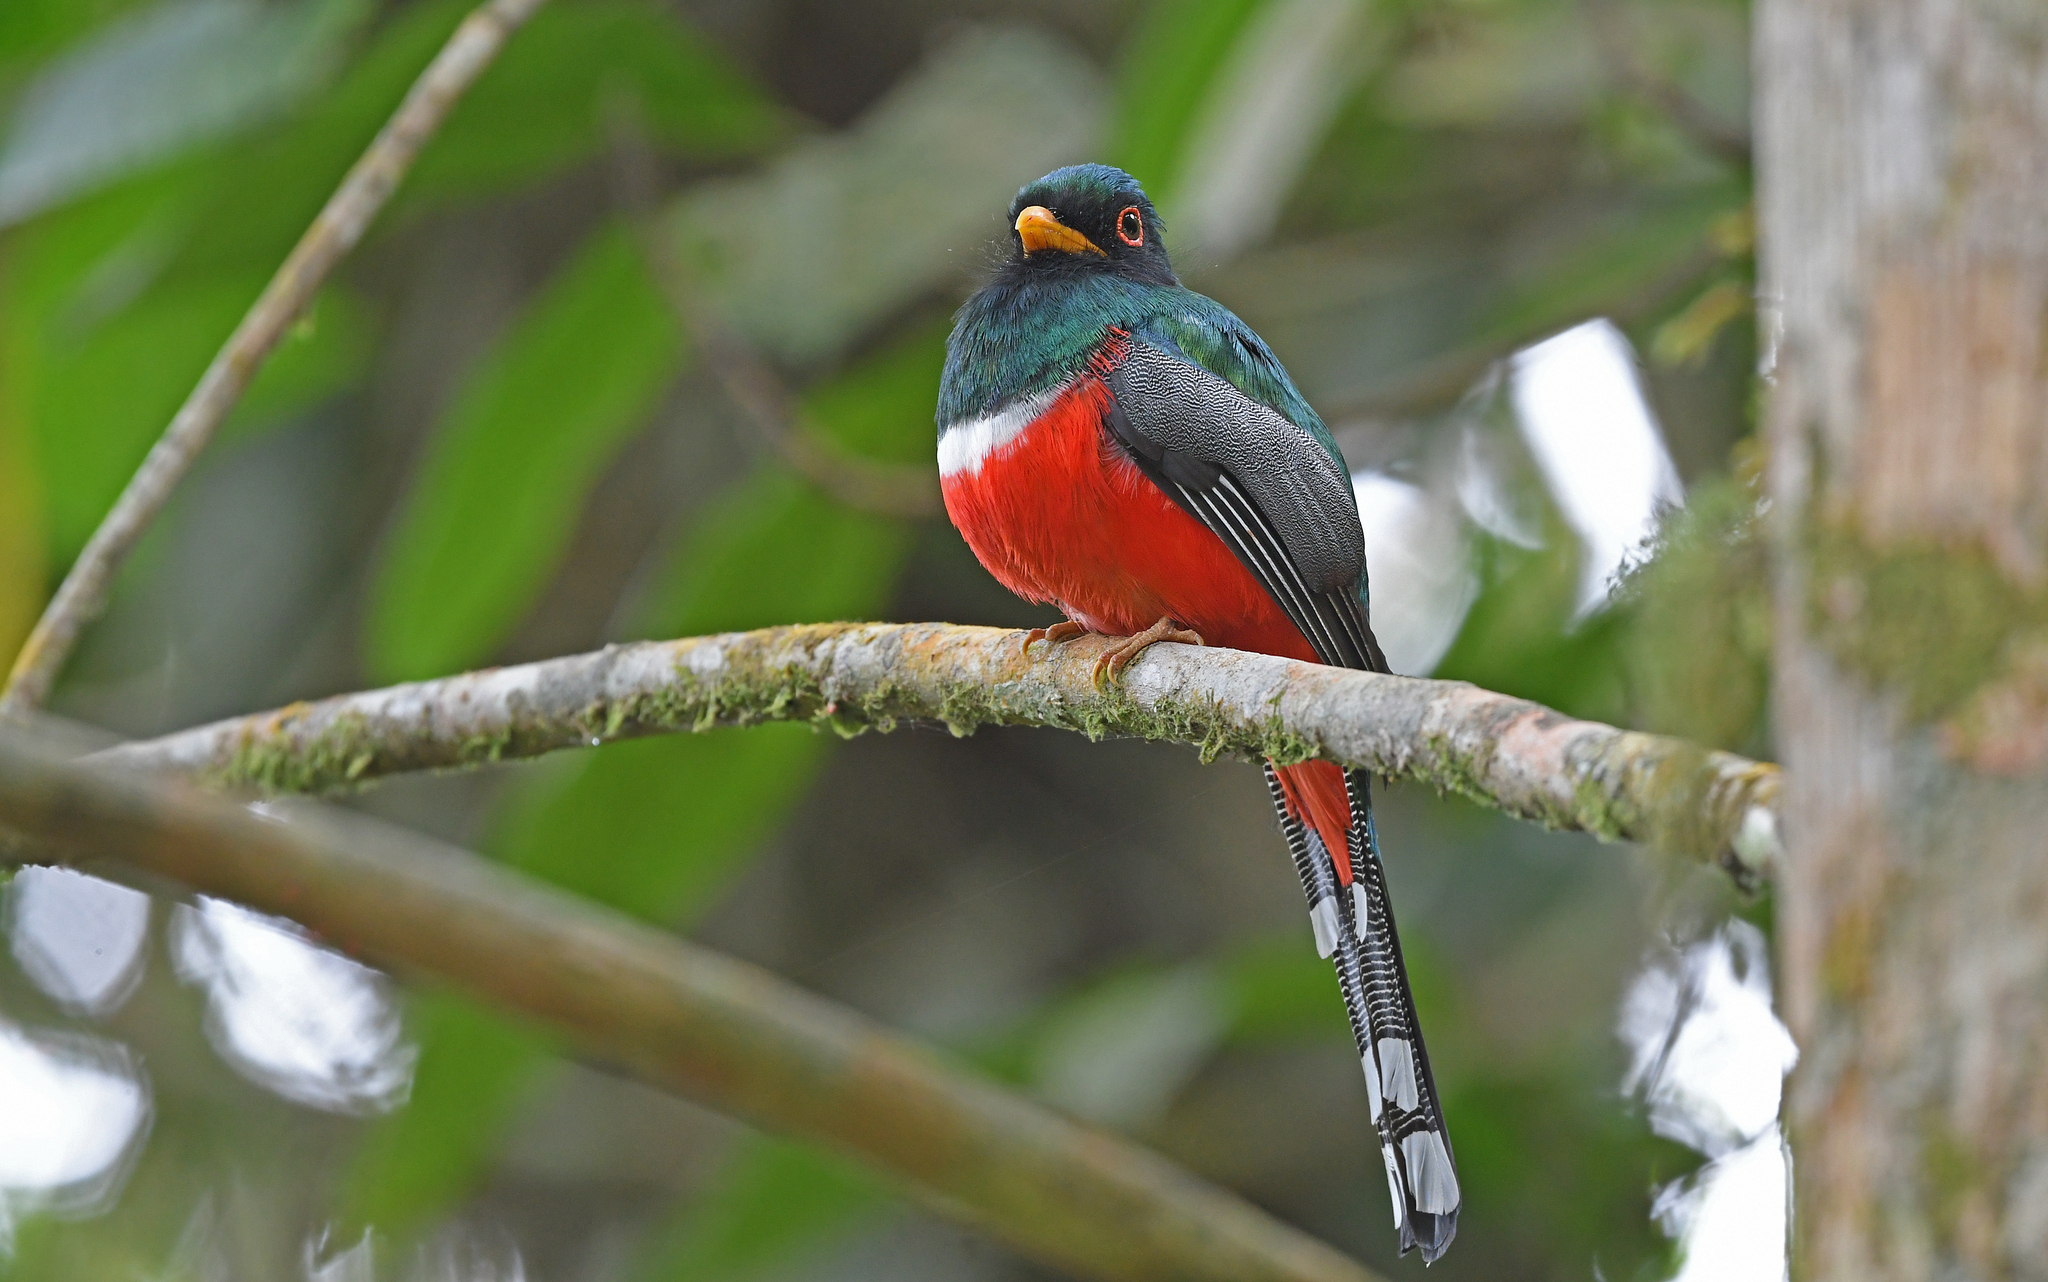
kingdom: Animalia
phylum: Chordata
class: Aves
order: Trogoniformes
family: Trogonidae
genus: Trogon
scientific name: Trogon personatus
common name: Masked trogon
